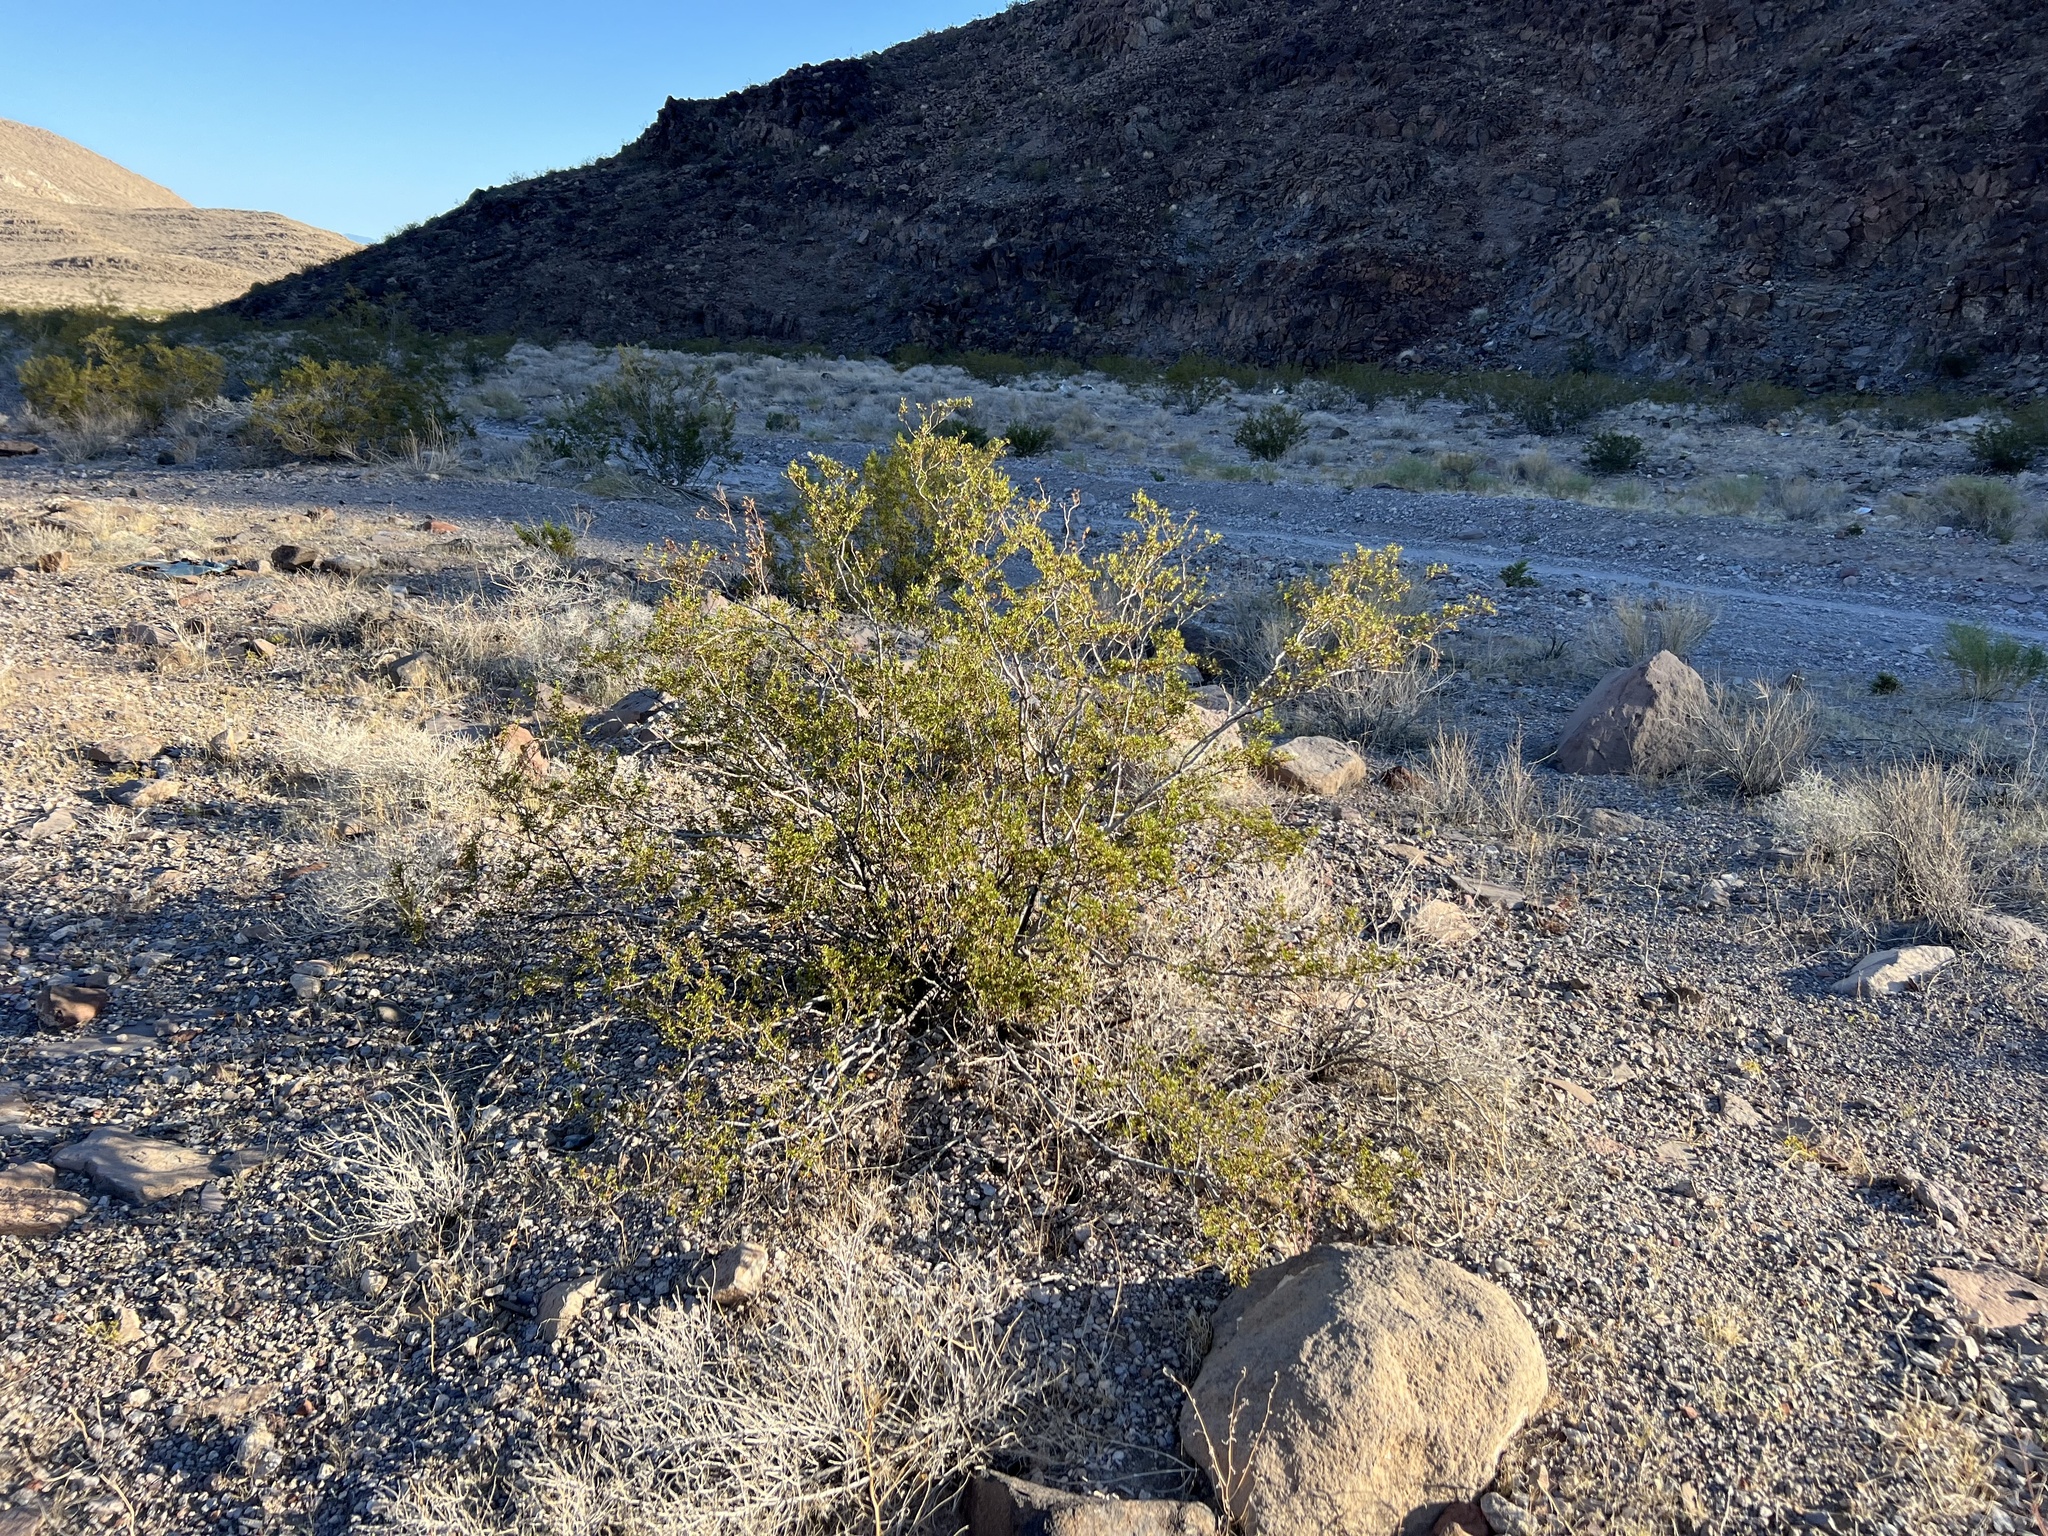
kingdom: Plantae
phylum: Tracheophyta
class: Magnoliopsida
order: Zygophyllales
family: Zygophyllaceae
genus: Larrea
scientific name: Larrea tridentata
